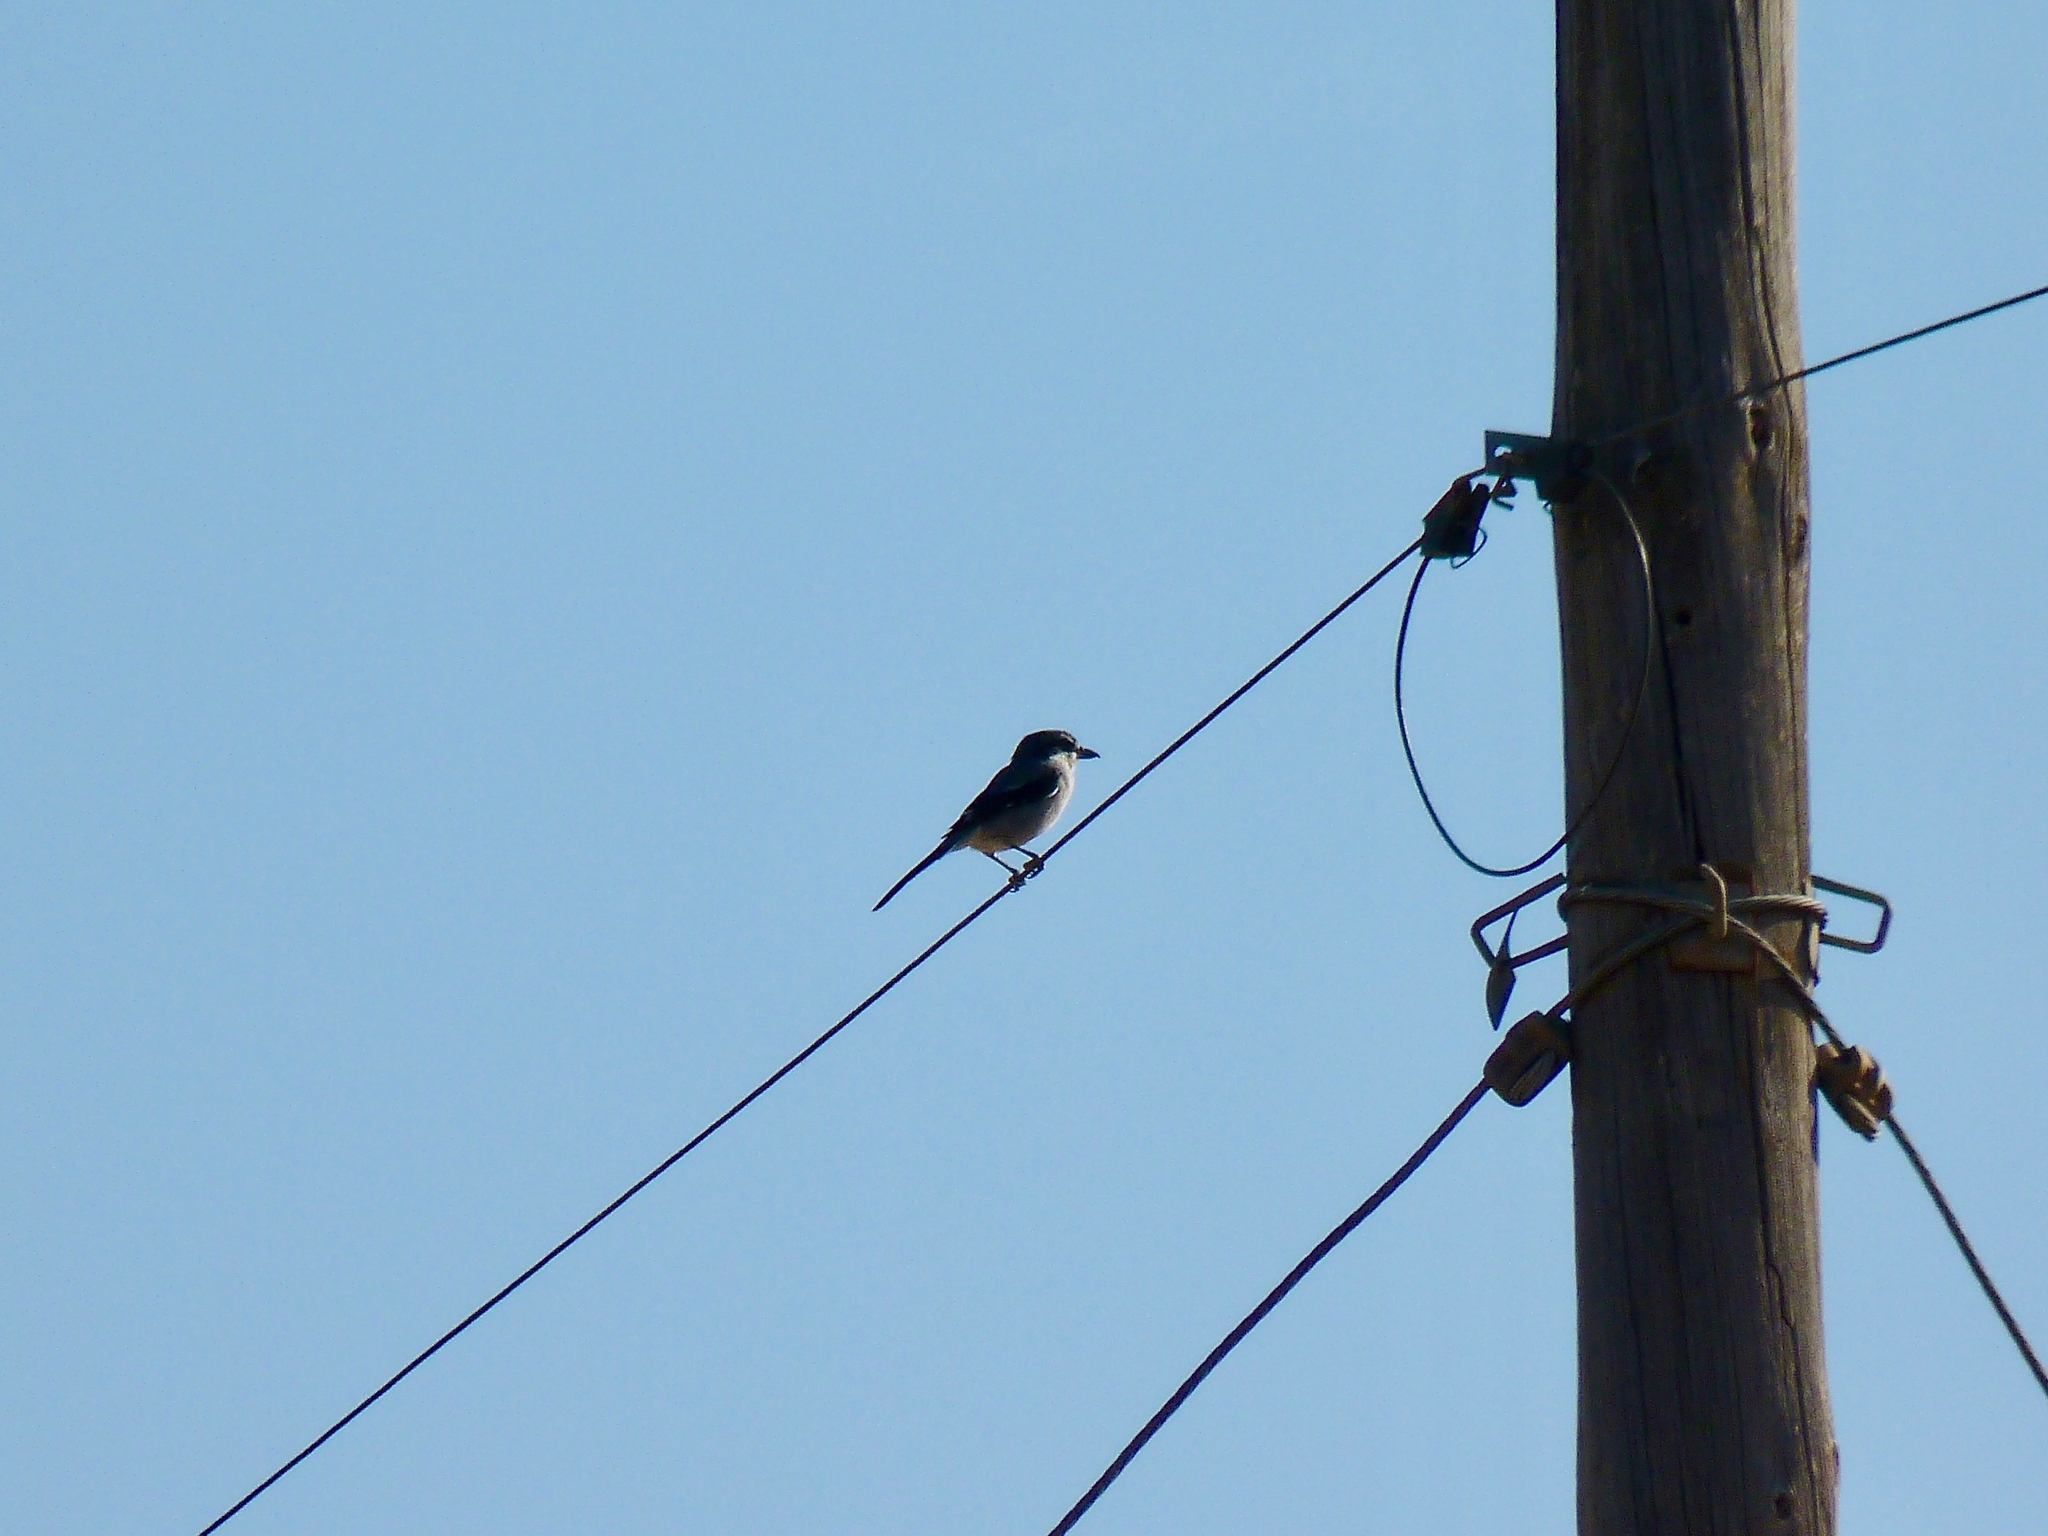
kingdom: Animalia
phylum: Chordata
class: Aves
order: Passeriformes
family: Laniidae
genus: Lanius
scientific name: Lanius meridionalis
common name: Iberian grey shrike
